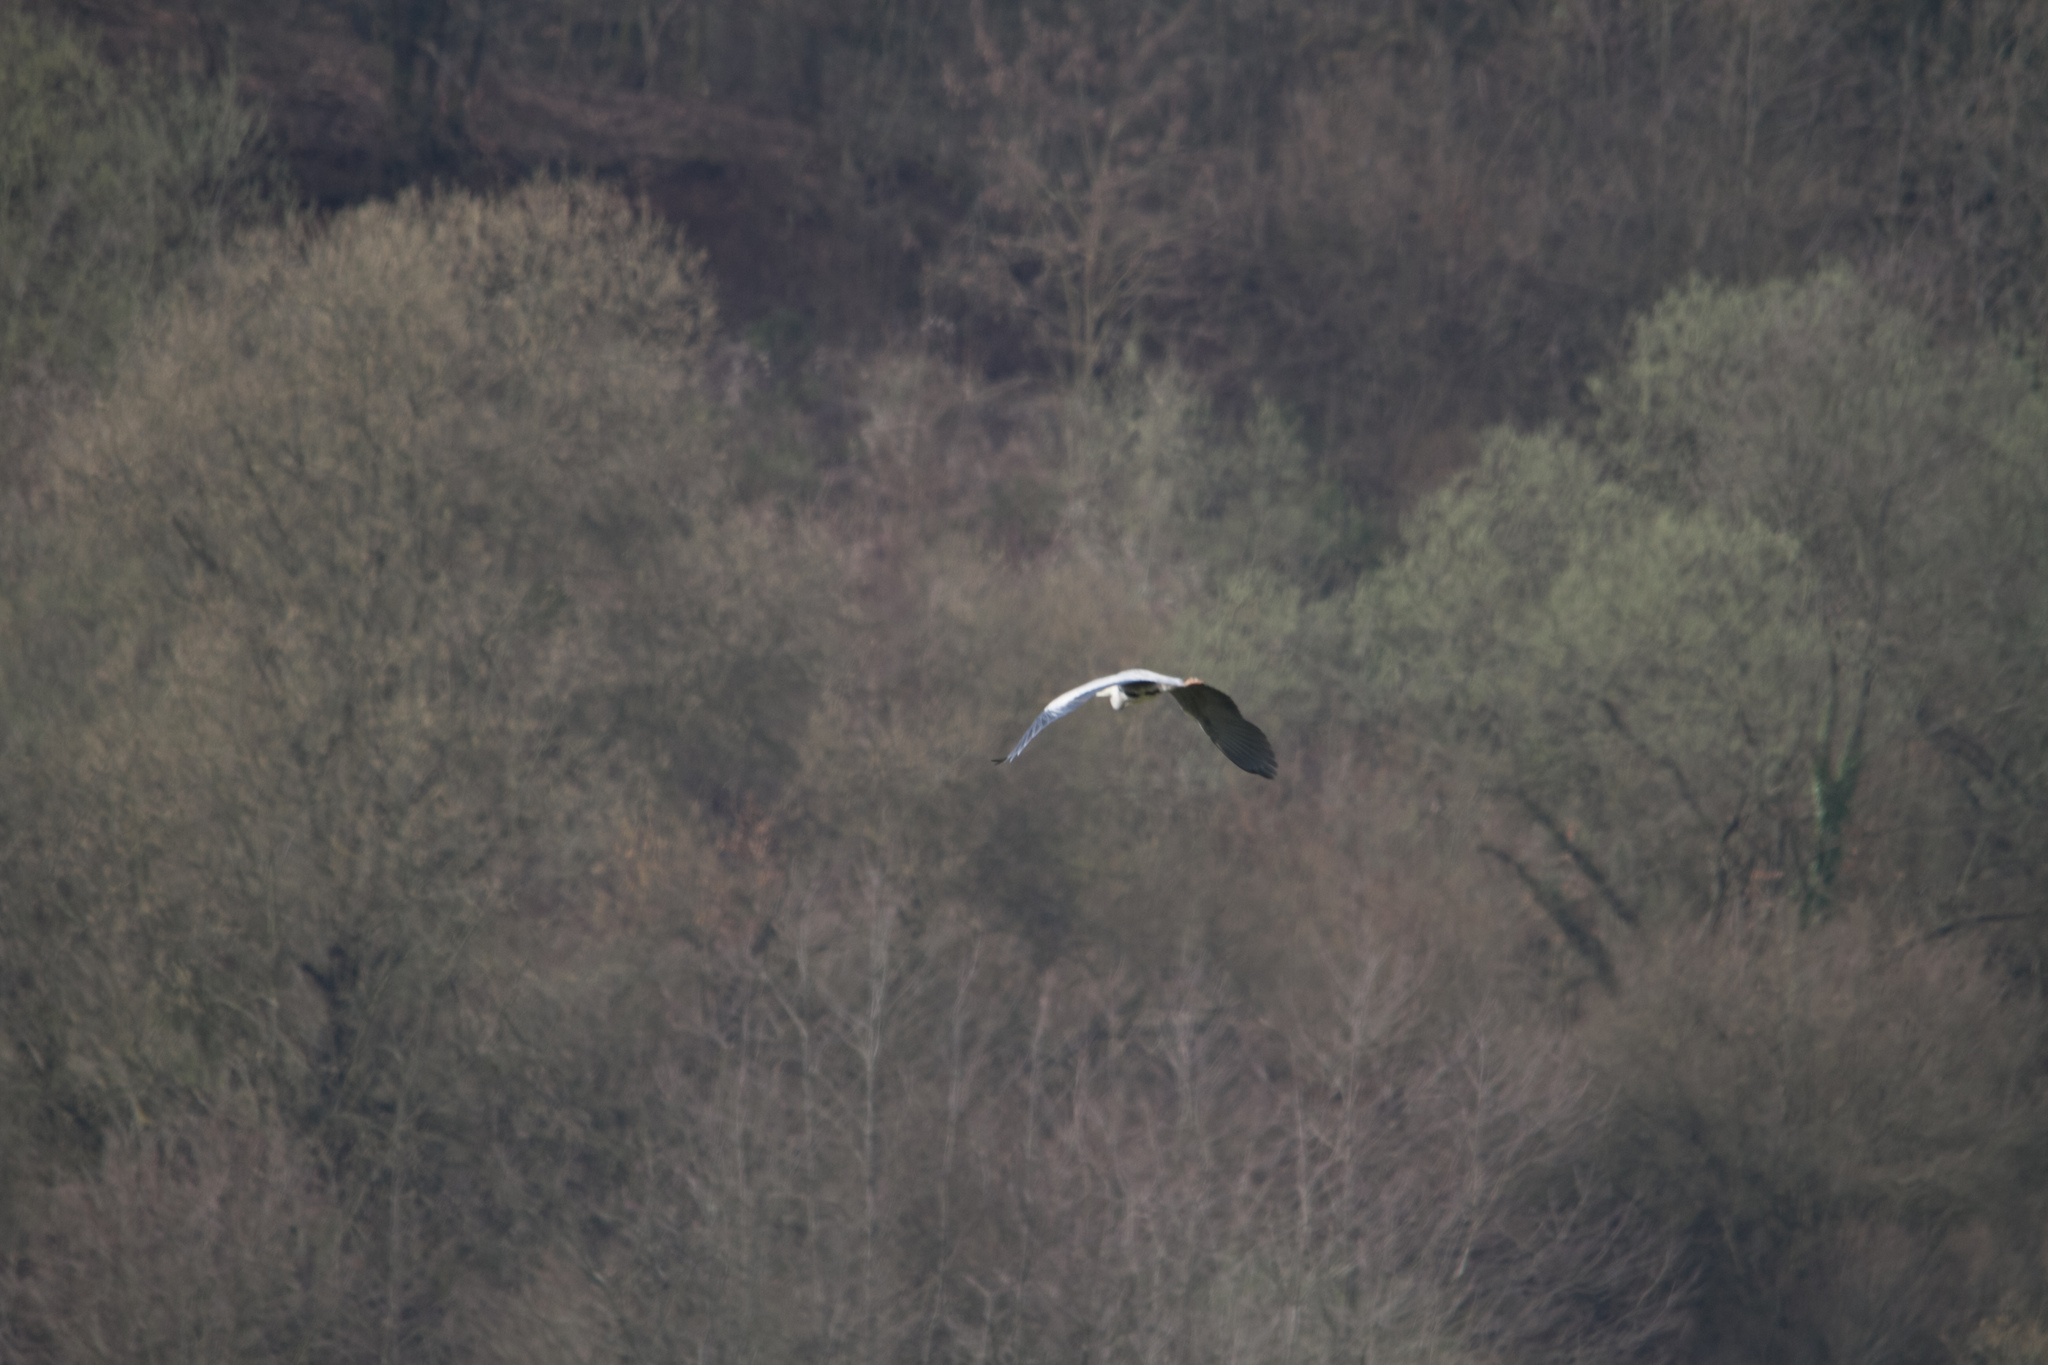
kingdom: Animalia
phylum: Chordata
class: Aves
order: Pelecaniformes
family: Ardeidae
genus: Ardea
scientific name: Ardea cinerea
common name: Grey heron
